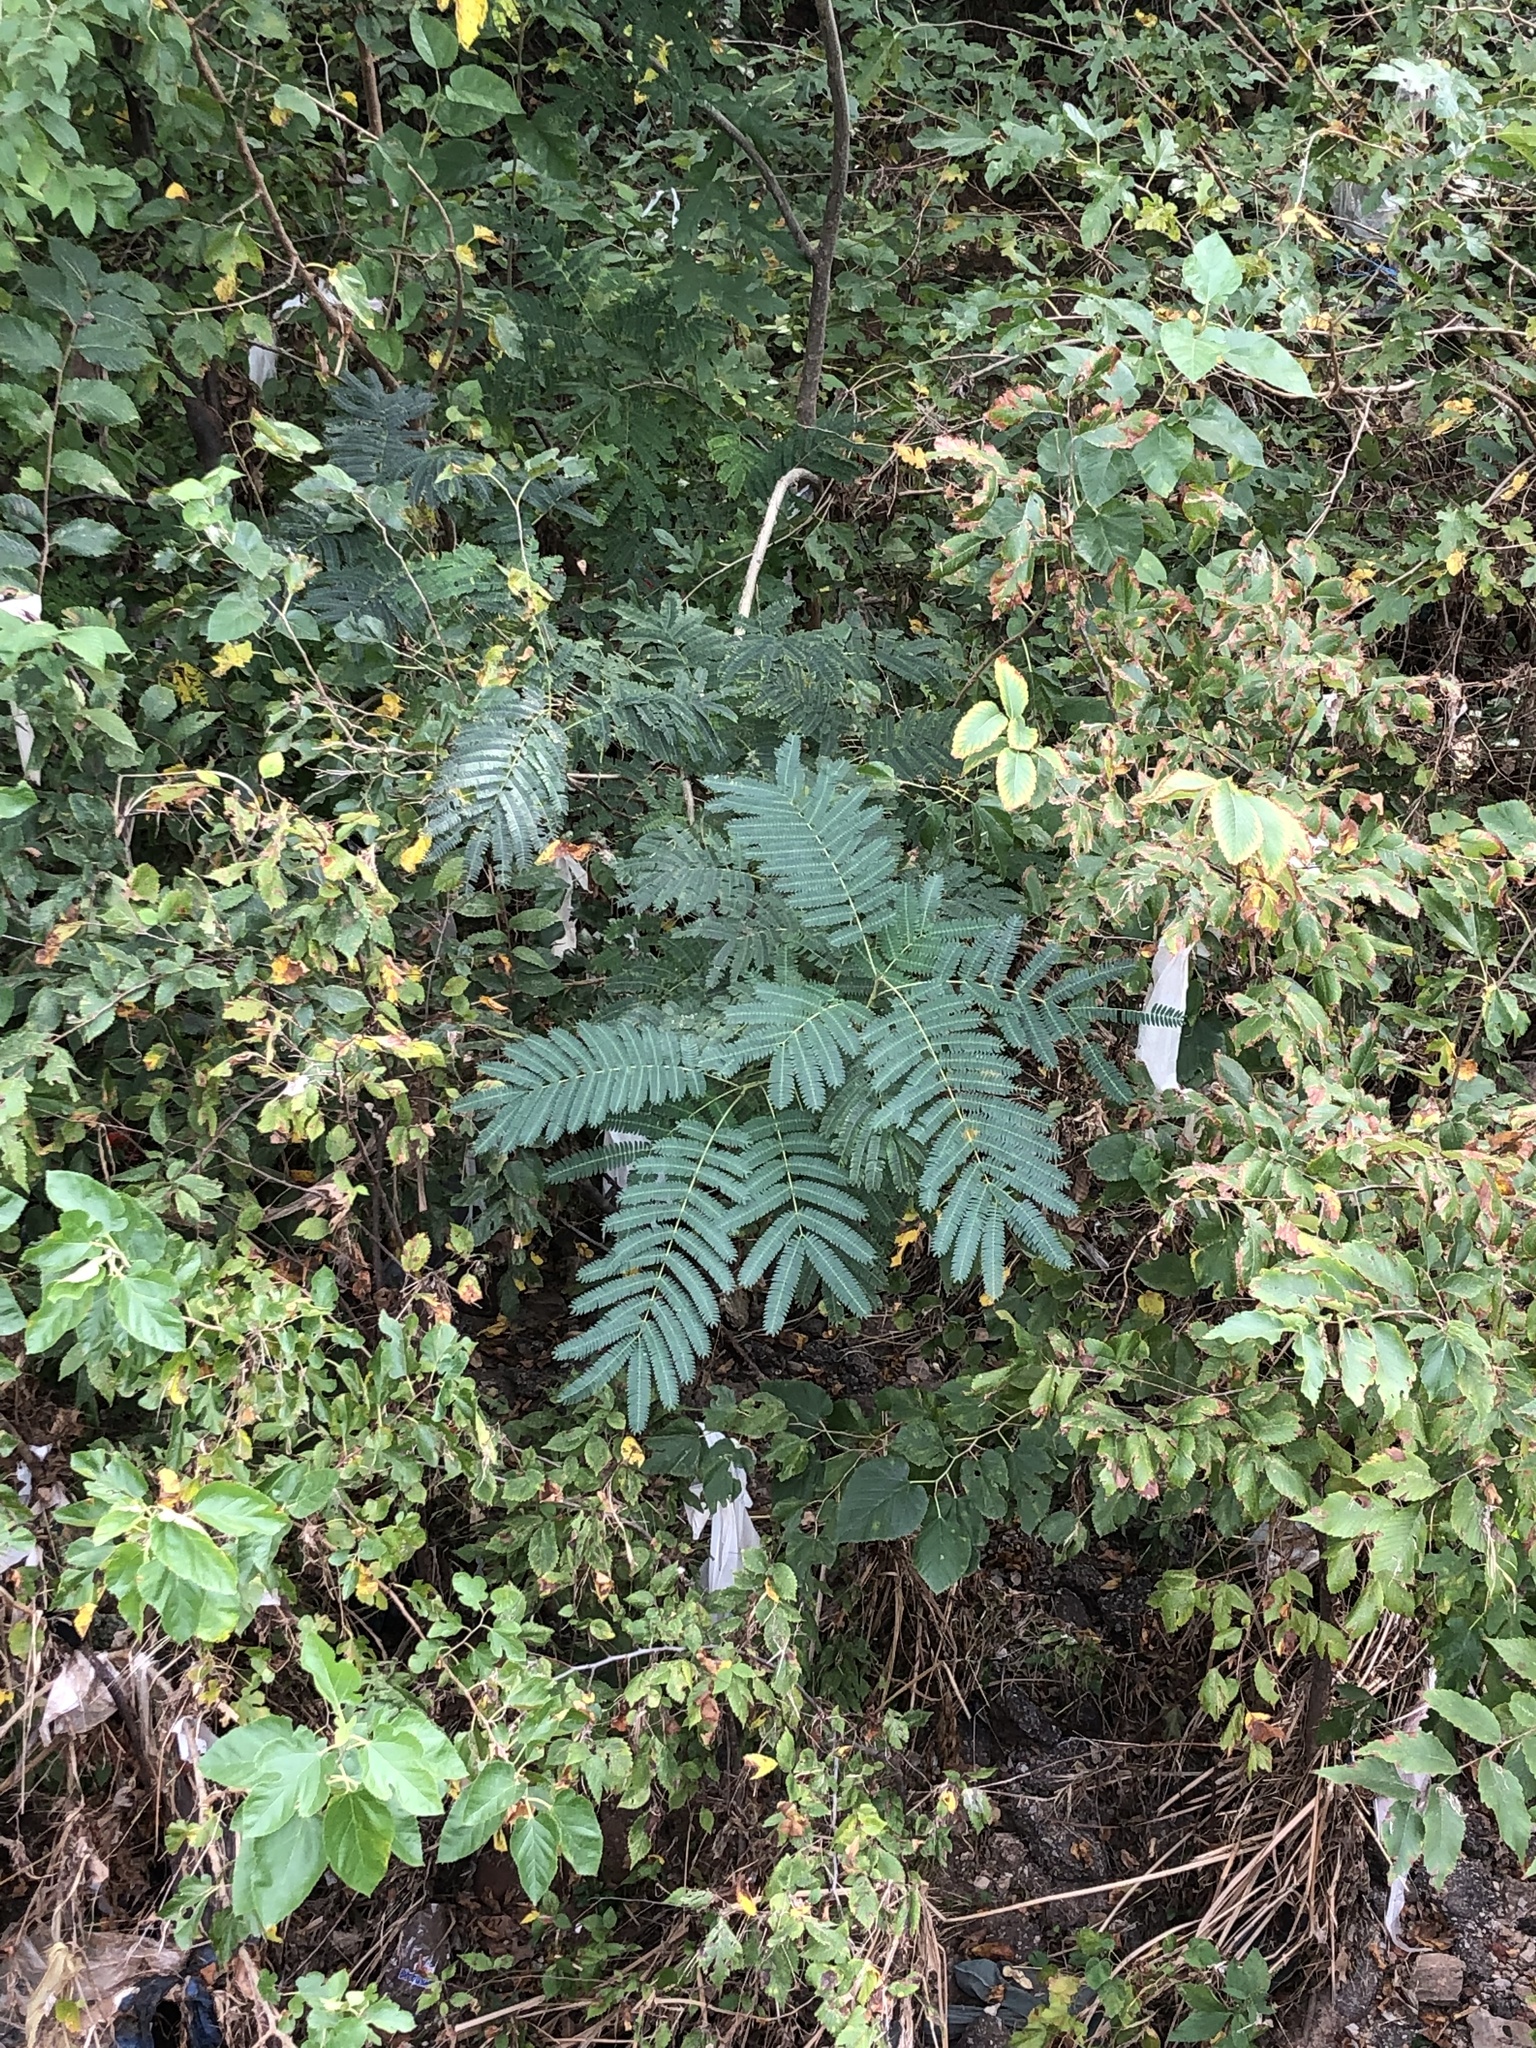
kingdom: Plantae
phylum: Tracheophyta
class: Magnoliopsida
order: Fabales
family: Fabaceae
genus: Albizia
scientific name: Albizia julibrissin
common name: Silktree
